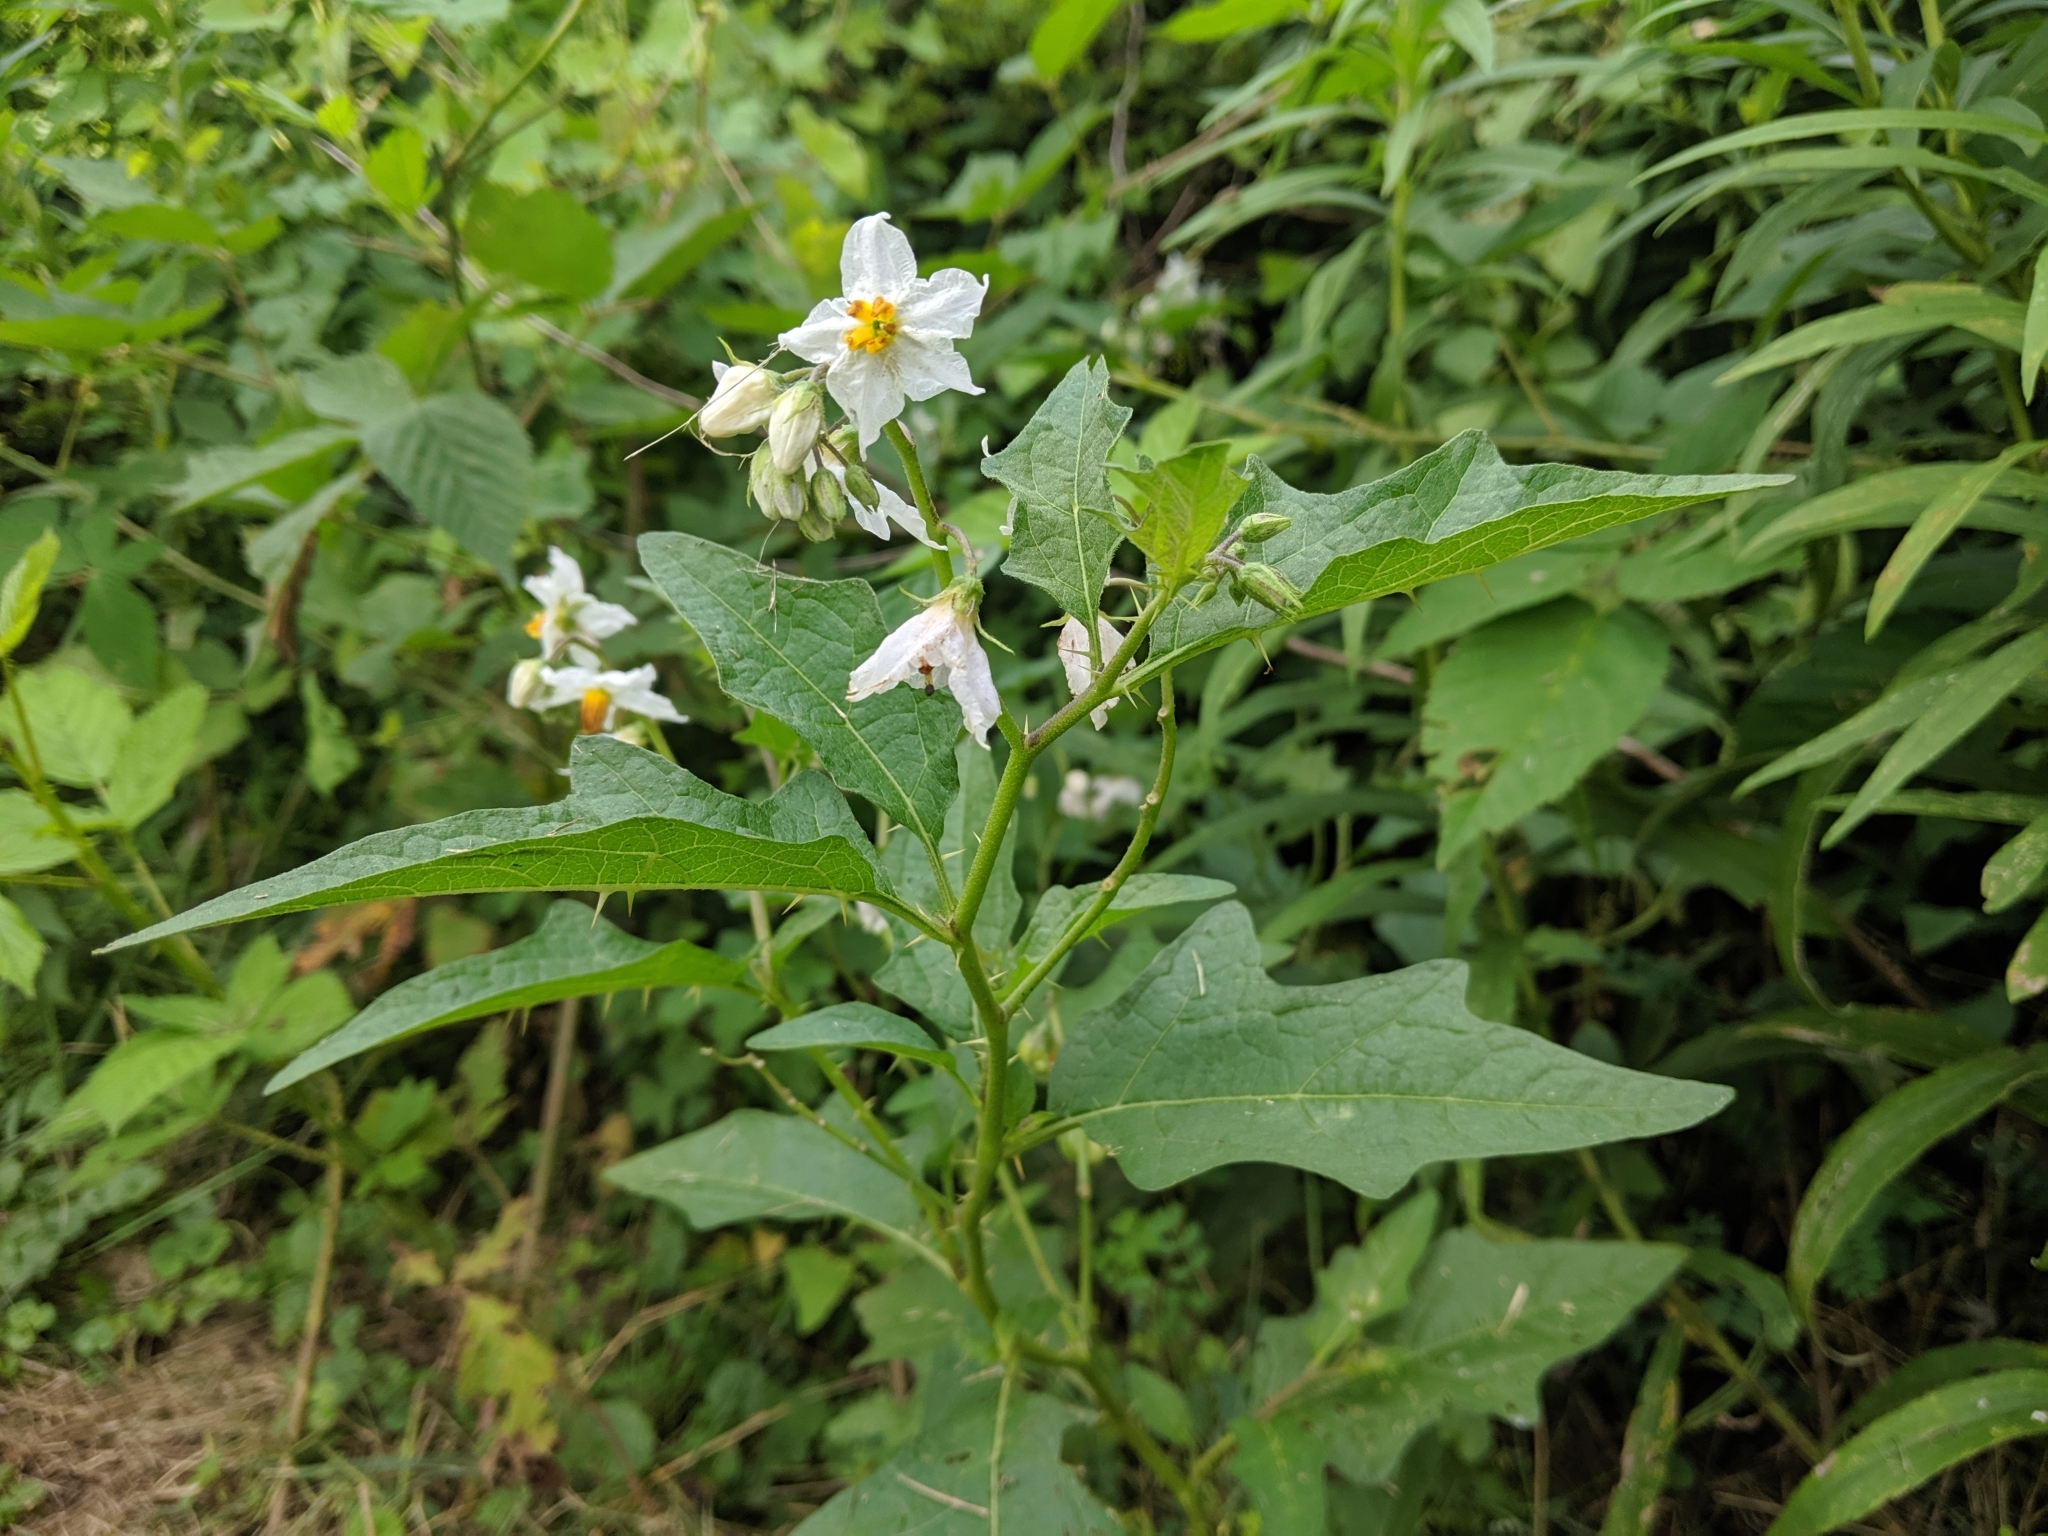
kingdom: Plantae
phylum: Tracheophyta
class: Magnoliopsida
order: Solanales
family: Solanaceae
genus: Solanum
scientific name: Solanum carolinense
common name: Horse-nettle
